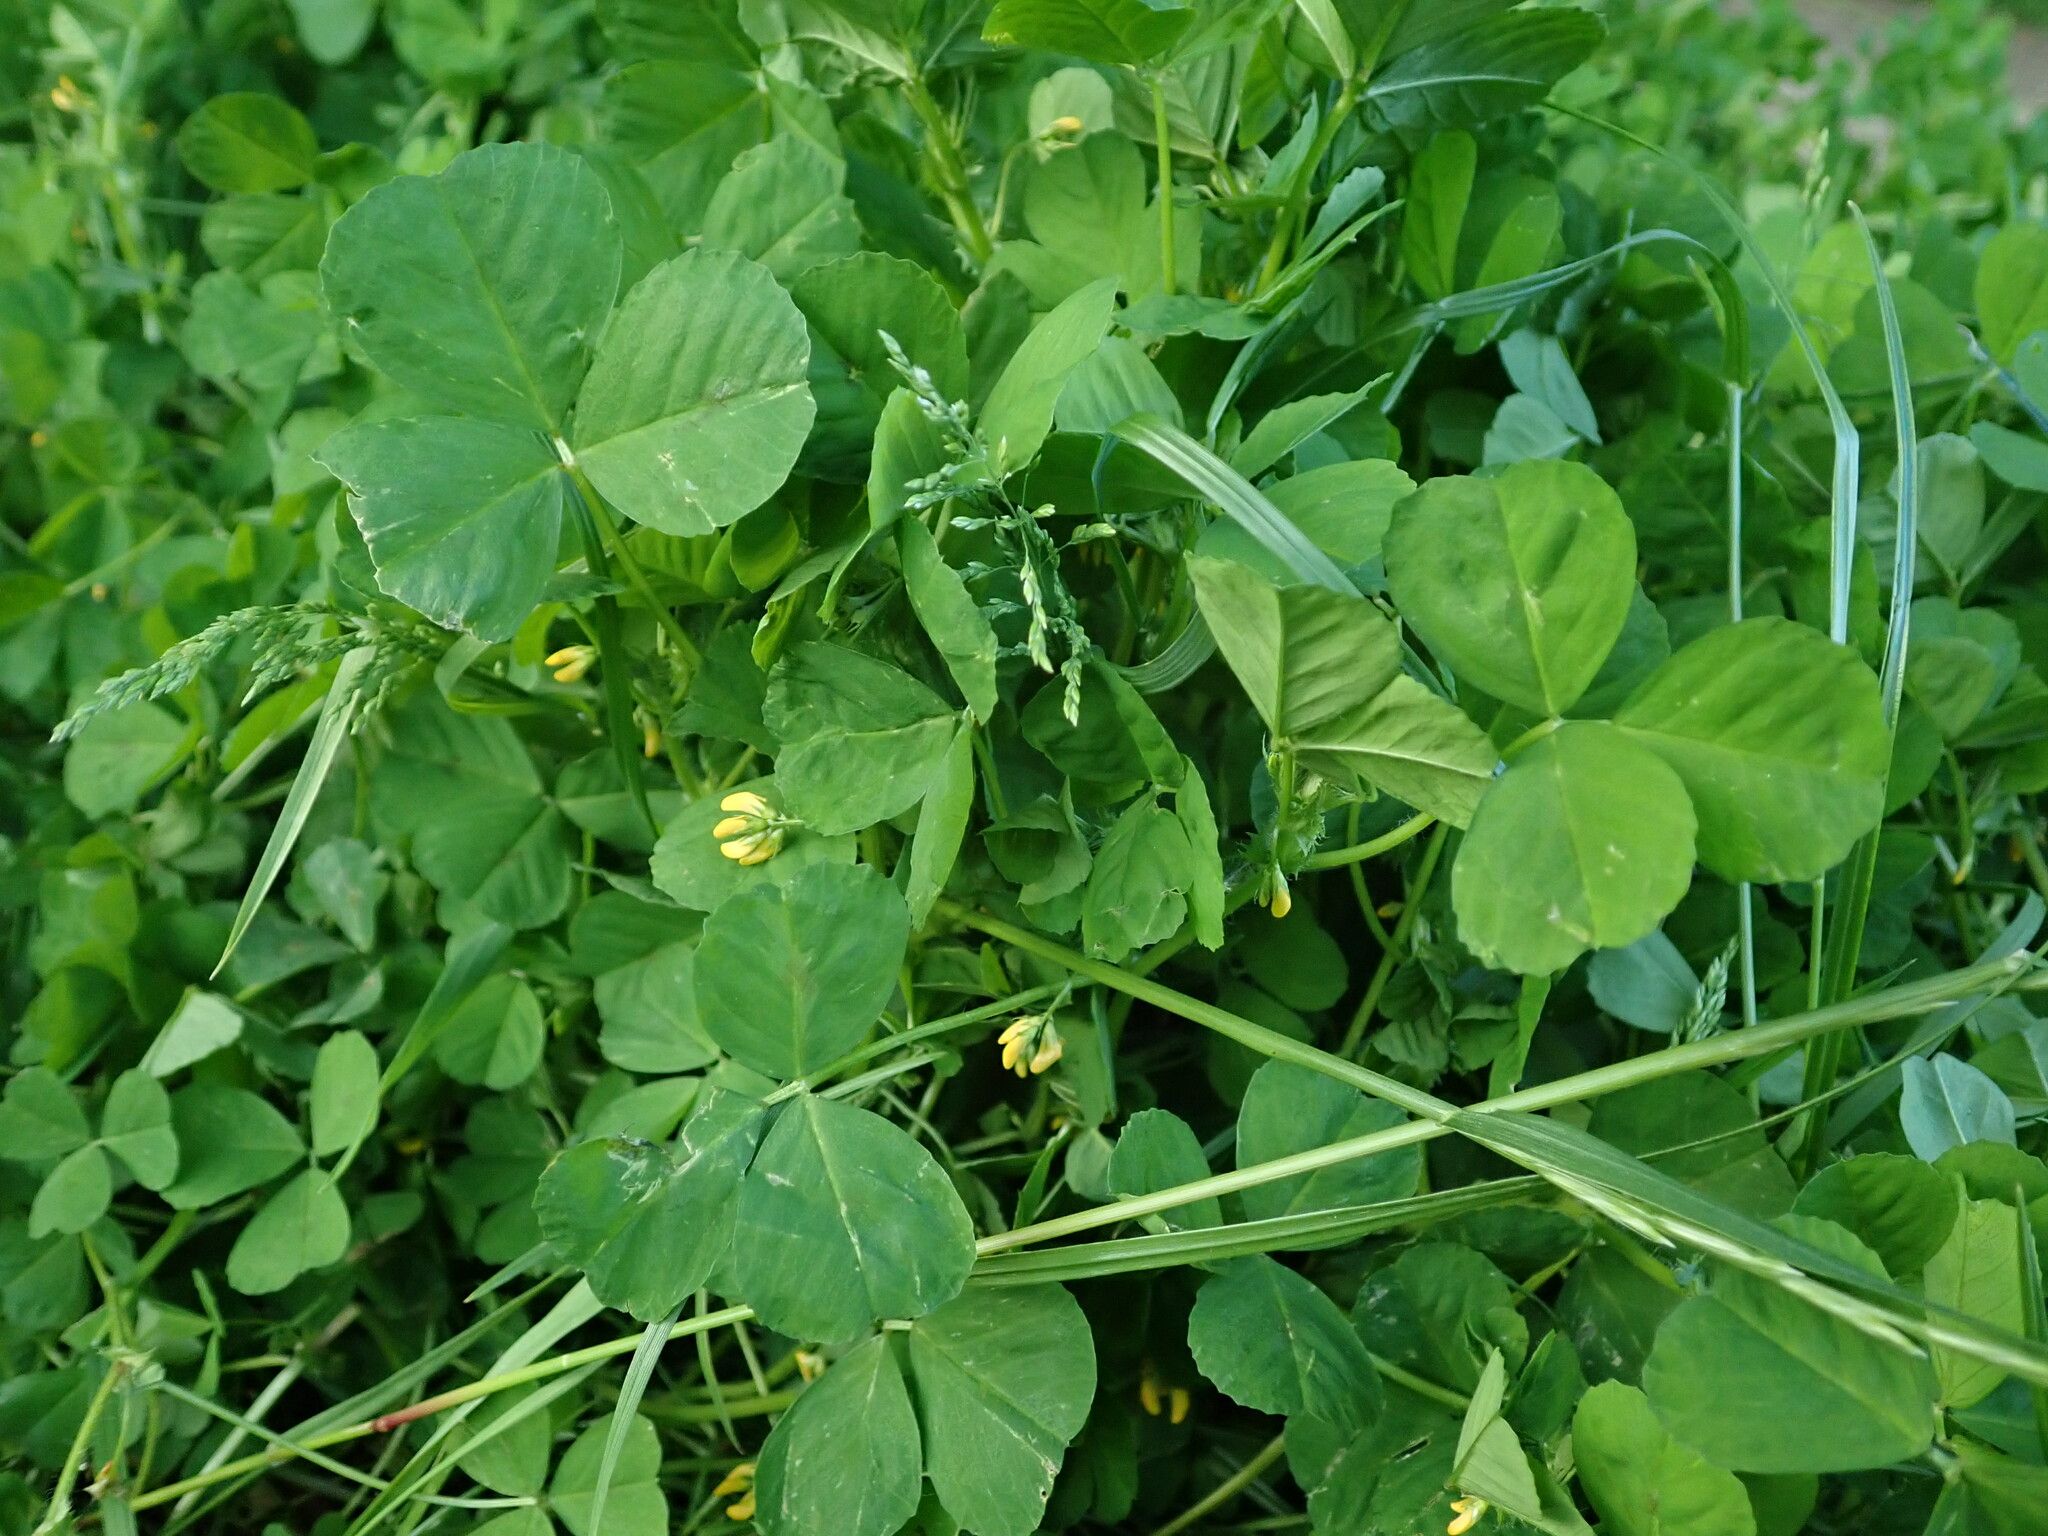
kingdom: Plantae
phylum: Tracheophyta
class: Magnoliopsida
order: Fabales
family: Fabaceae
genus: Medicago
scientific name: Medicago arabica
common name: Spotted medick
